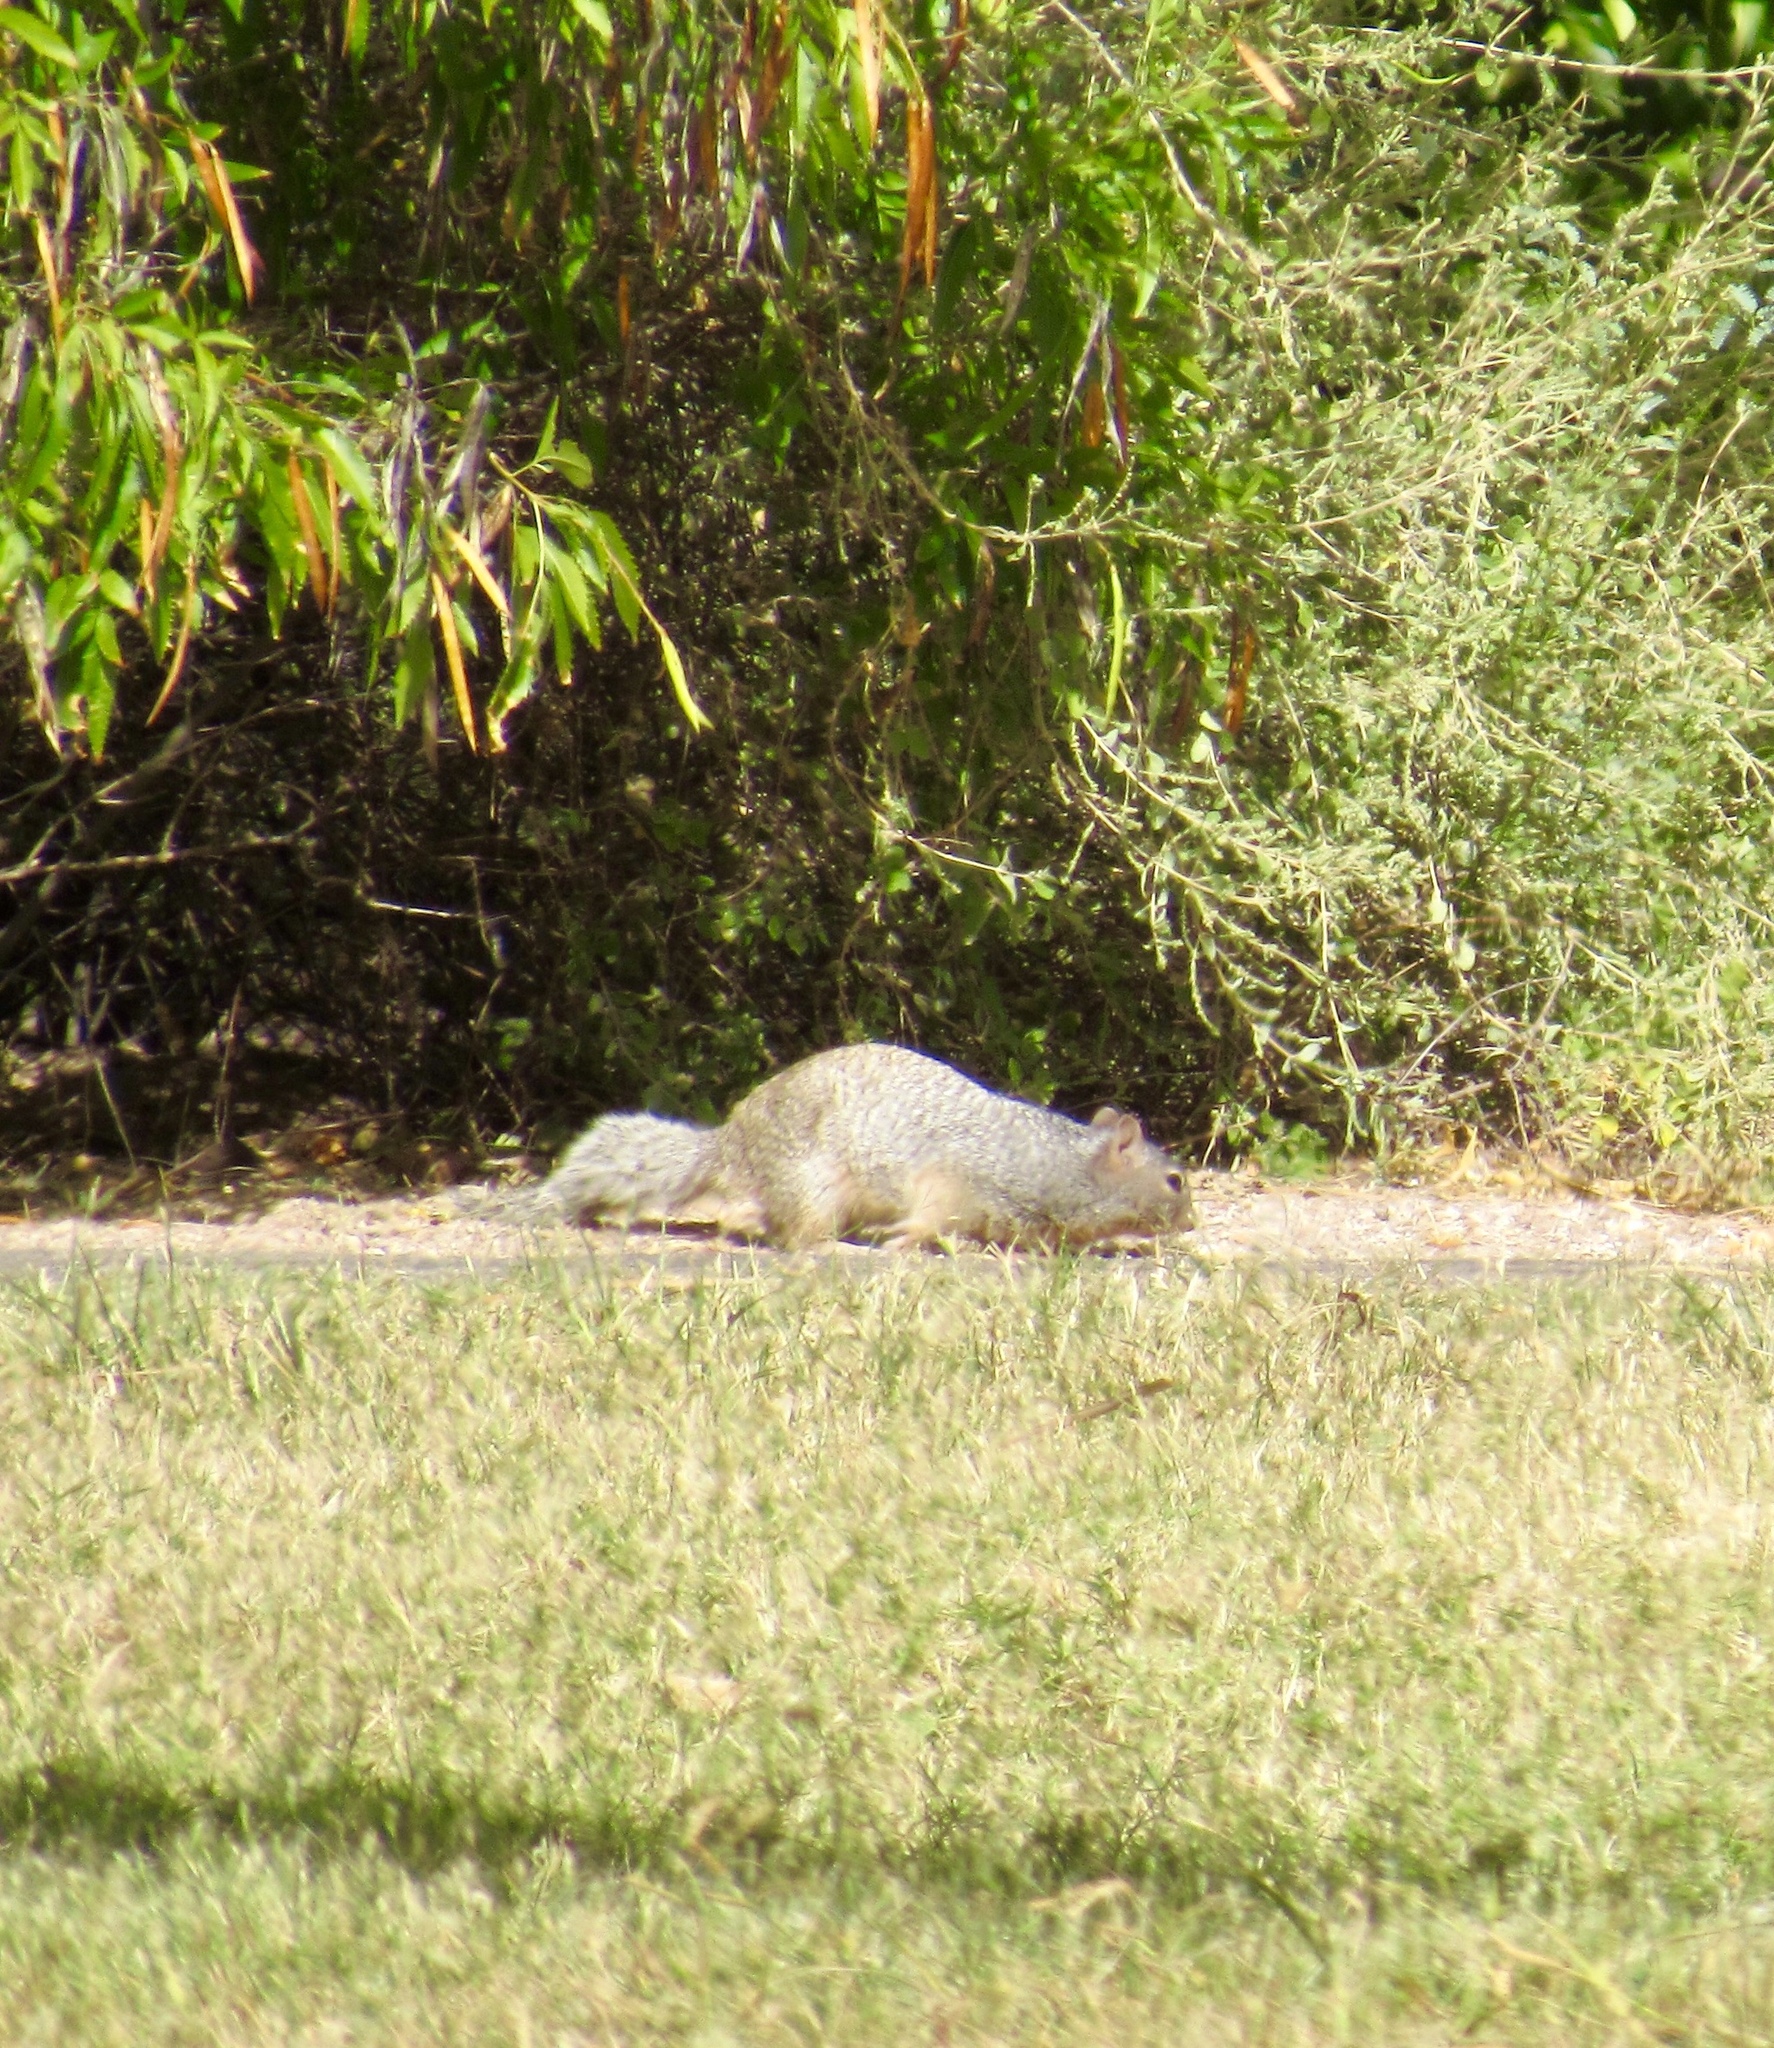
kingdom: Animalia
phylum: Chordata
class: Mammalia
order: Rodentia
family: Sciuridae
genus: Otospermophilus
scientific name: Otospermophilus variegatus
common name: Rock squirrel
